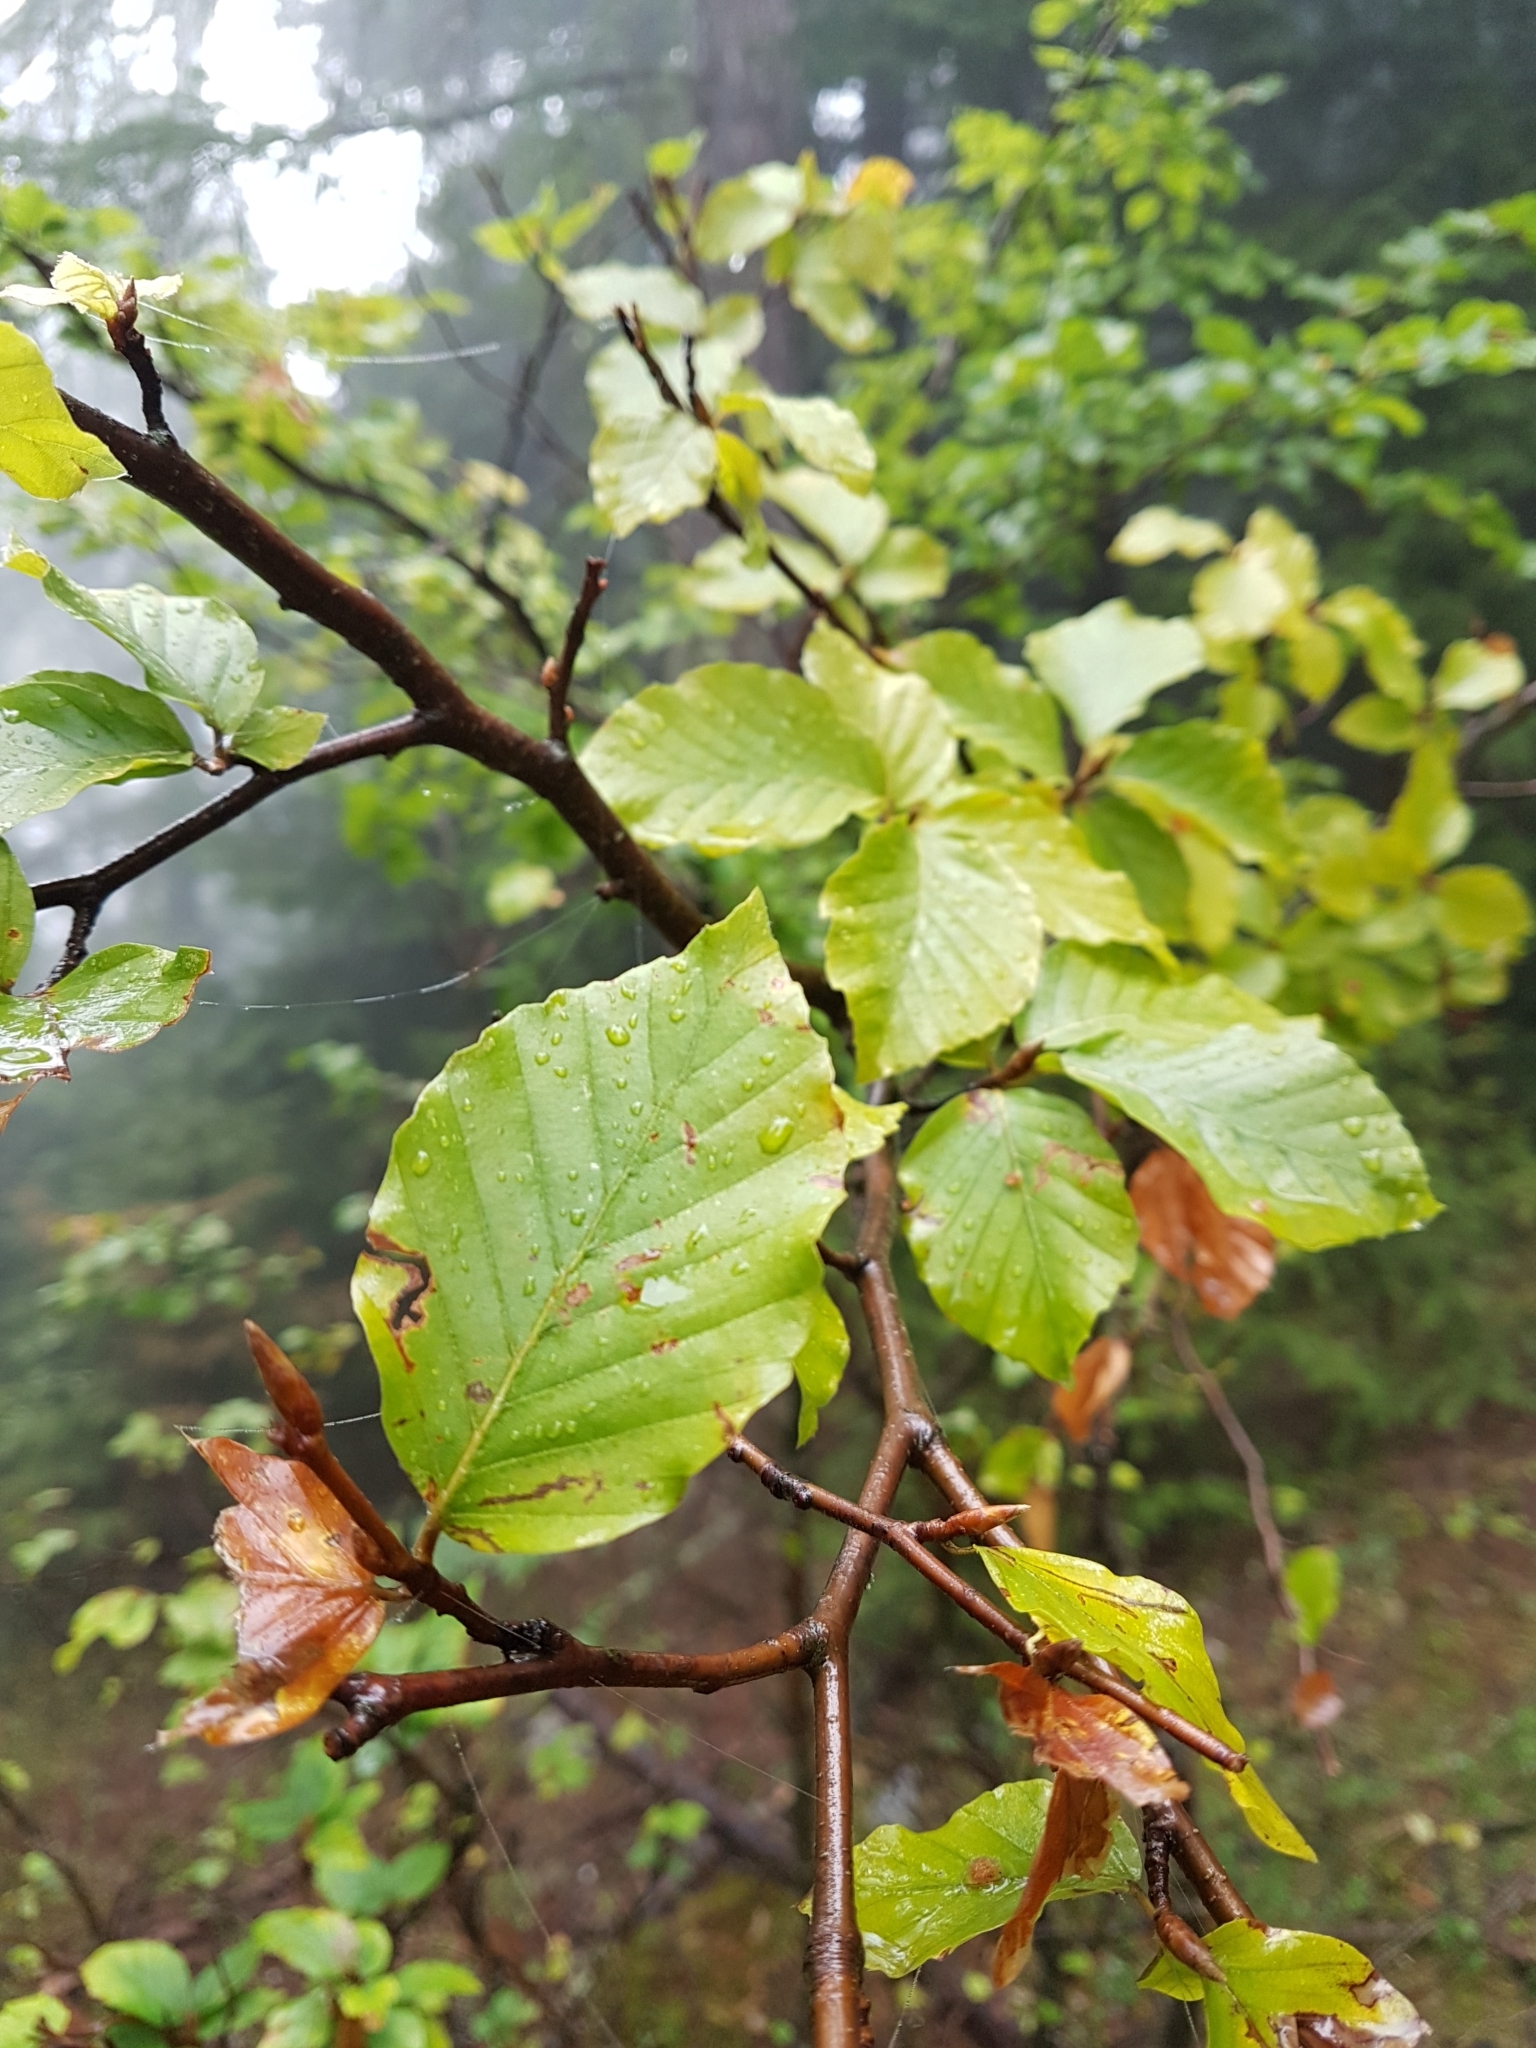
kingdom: Plantae
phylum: Tracheophyta
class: Magnoliopsida
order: Fagales
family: Fagaceae
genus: Fagus
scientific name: Fagus sylvatica
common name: Beech
